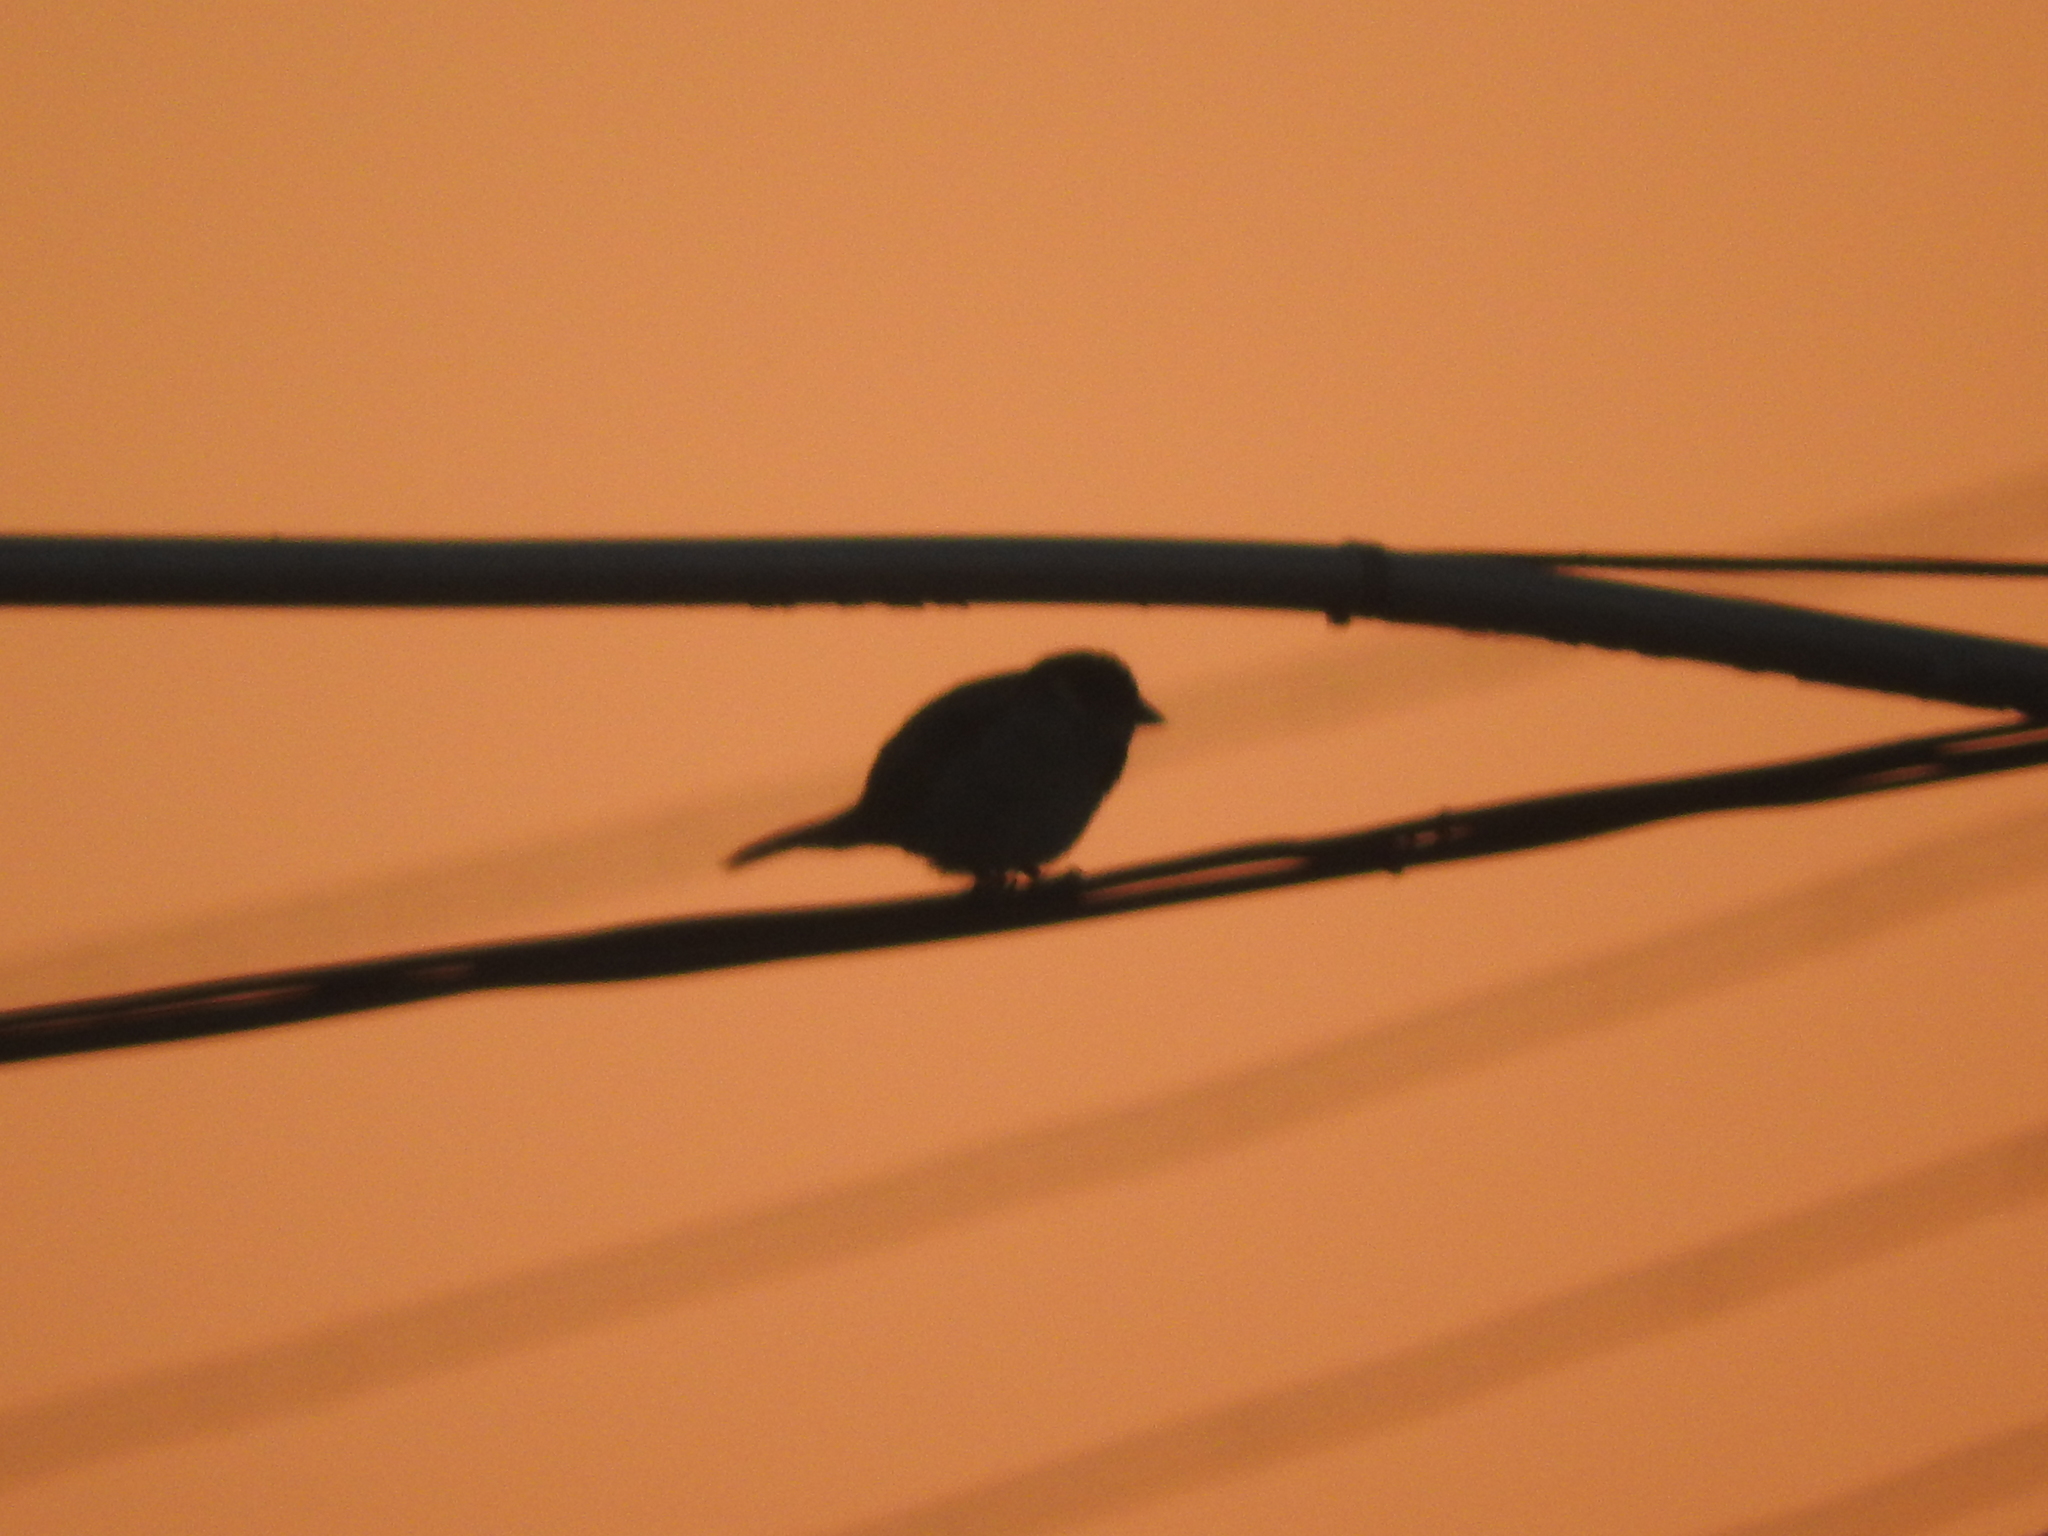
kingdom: Animalia
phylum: Chordata
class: Aves
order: Passeriformes
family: Passeridae
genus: Passer
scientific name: Passer domesticus
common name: House sparrow
